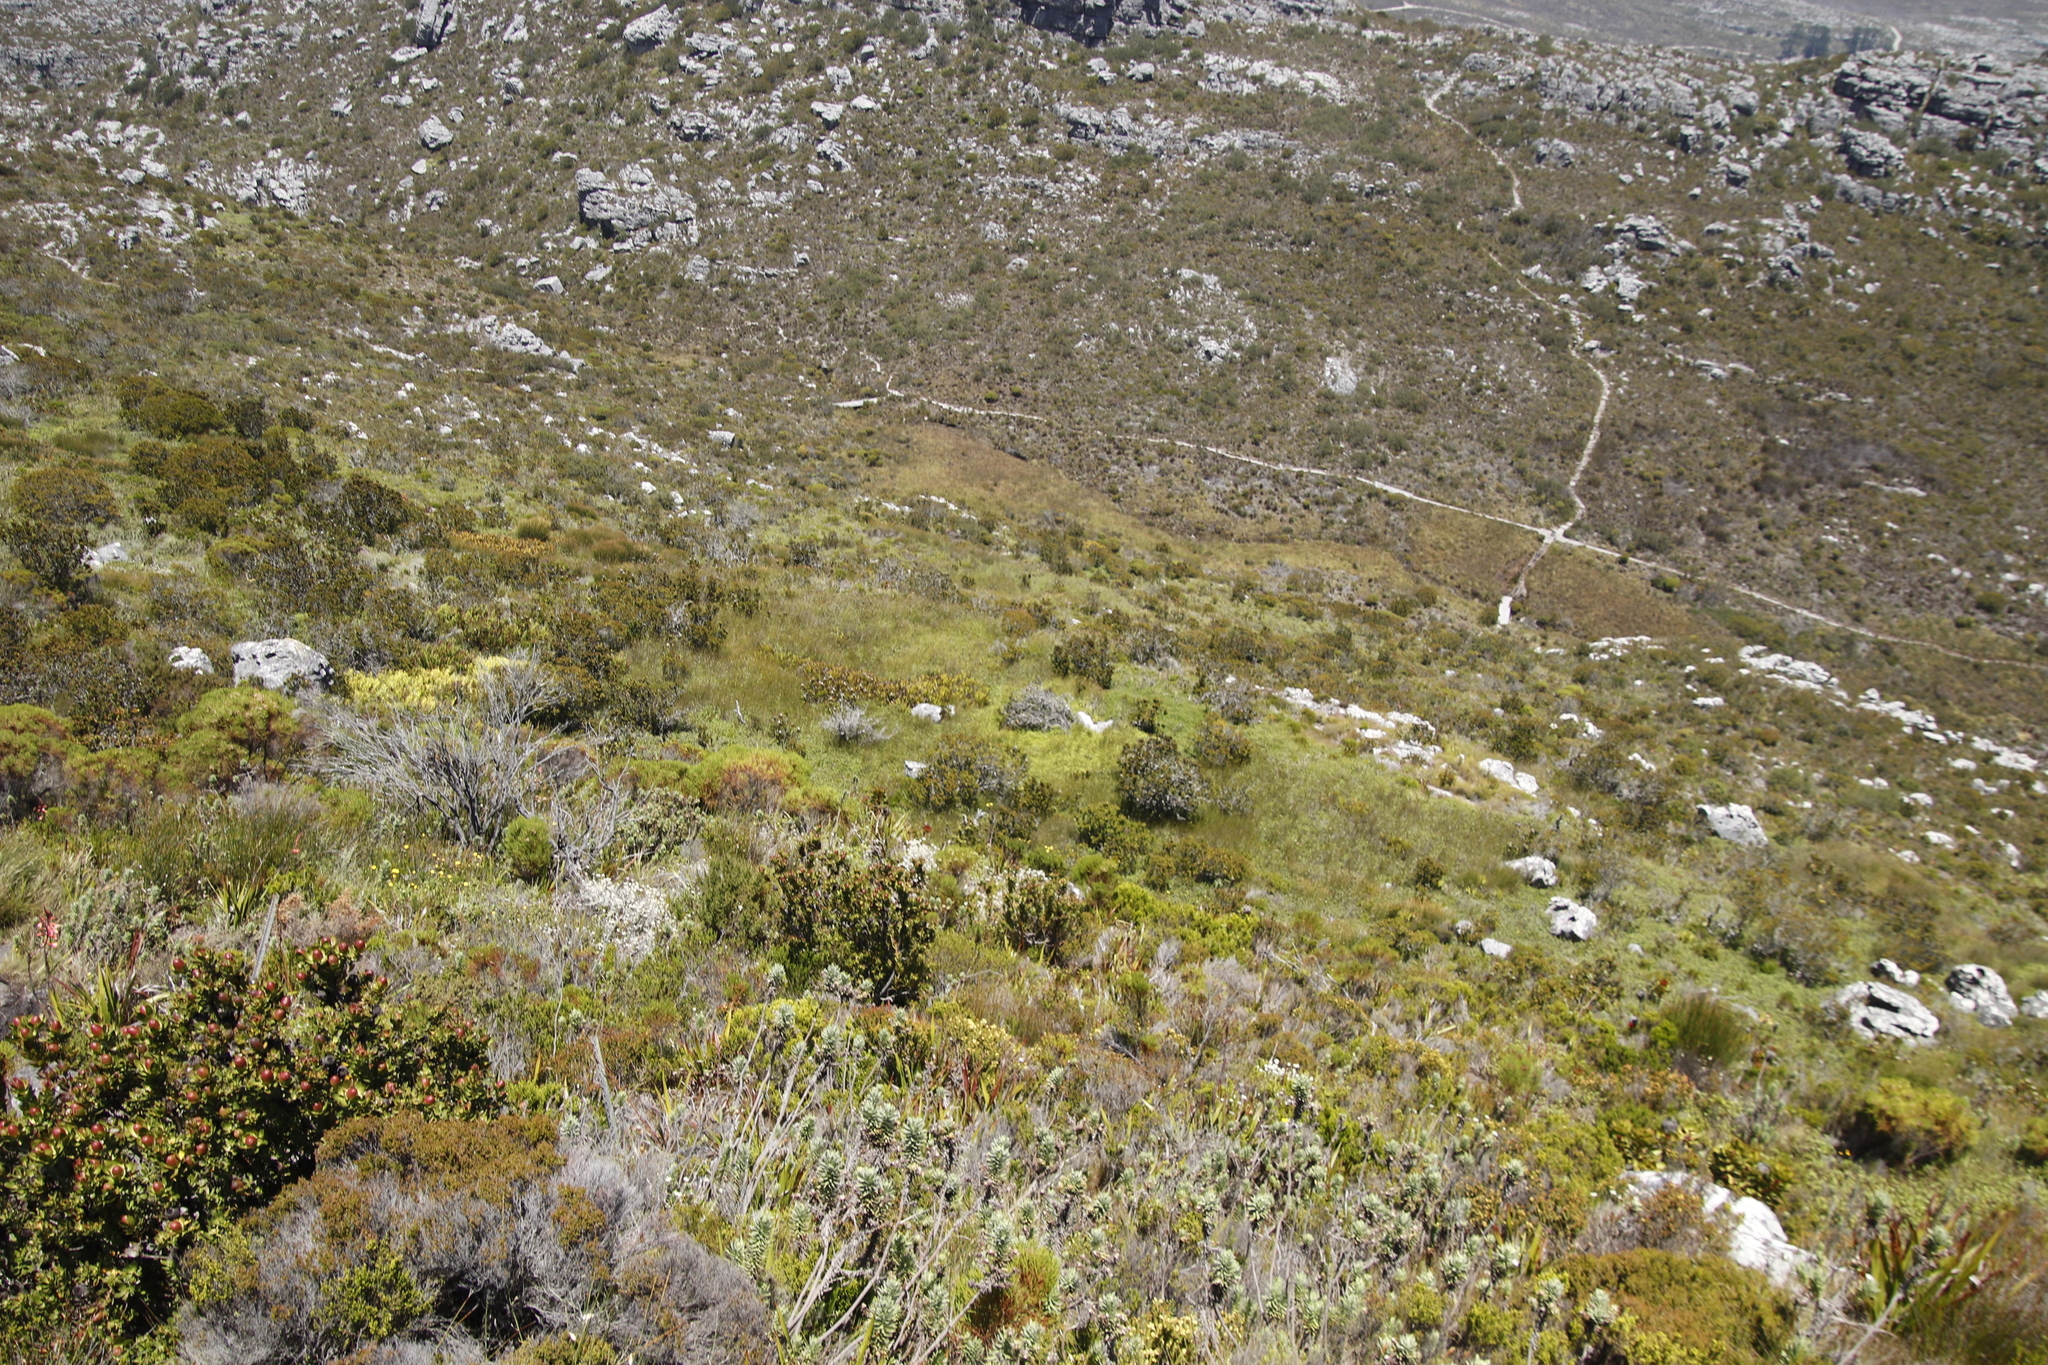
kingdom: Plantae
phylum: Tracheophyta
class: Magnoliopsida
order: Rosales
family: Rosaceae
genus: Cliffortia
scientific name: Cliffortia odorata
